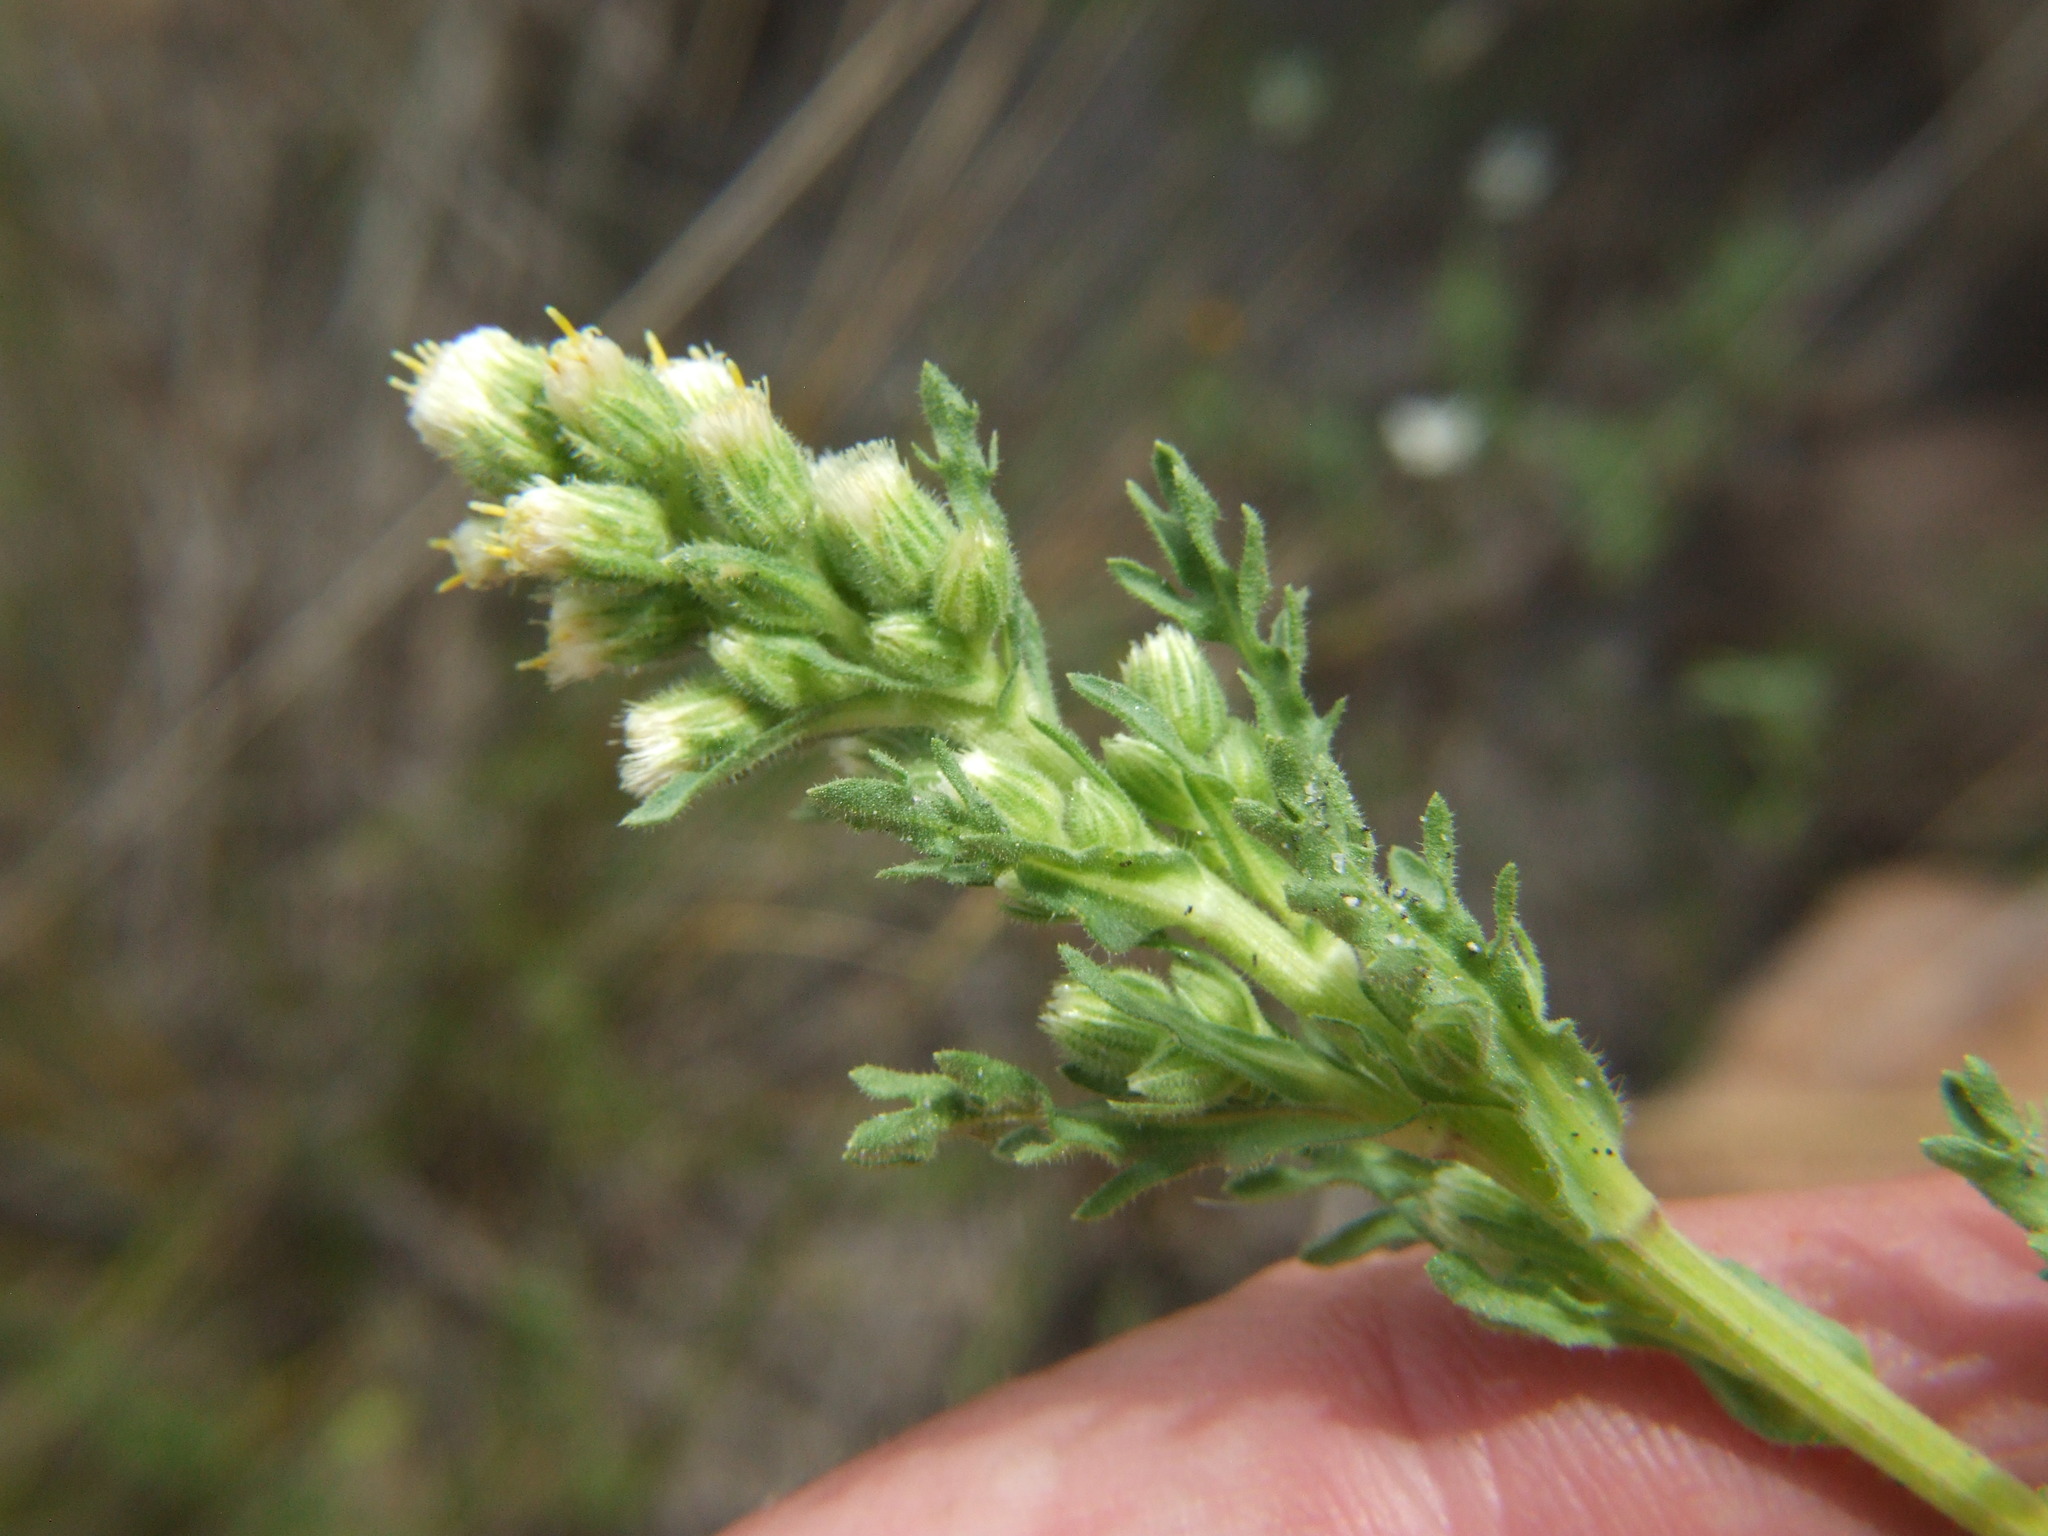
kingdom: Plantae
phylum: Tracheophyta
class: Magnoliopsida
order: Asterales
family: Asteraceae
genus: Laennecia
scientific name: Laennecia artemisiifolia
